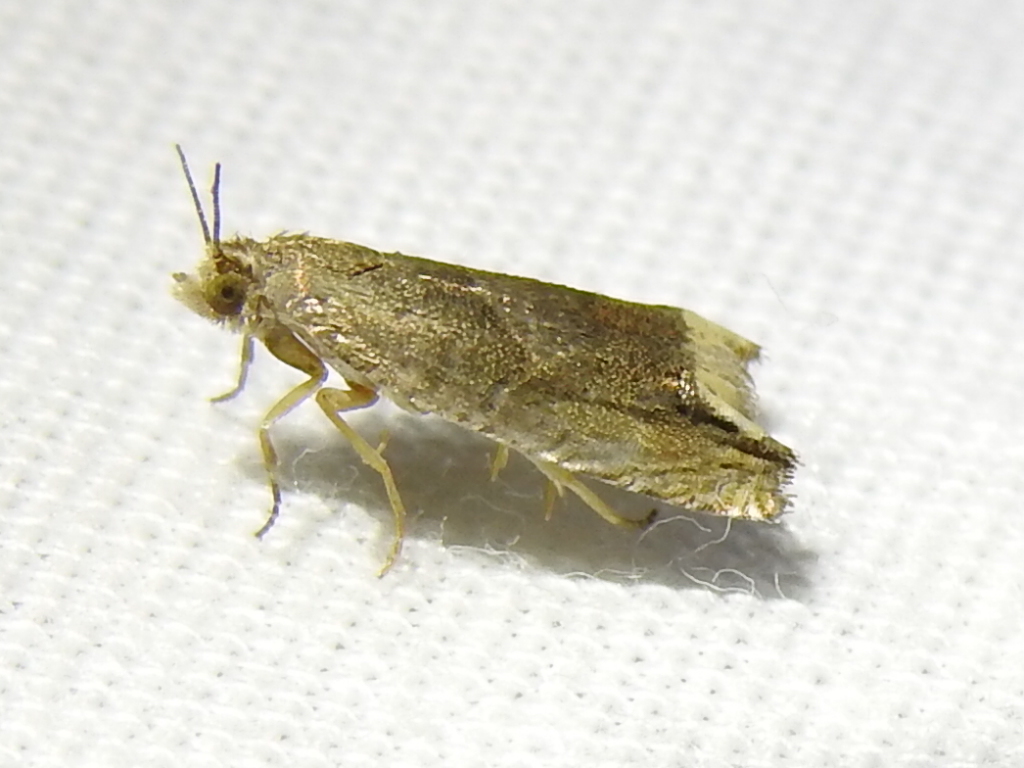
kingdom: Animalia
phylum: Arthropoda
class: Insecta
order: Lepidoptera
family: Tortricidae
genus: Epiblema
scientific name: Epiblema strenuana
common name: Ragweed borer moth
